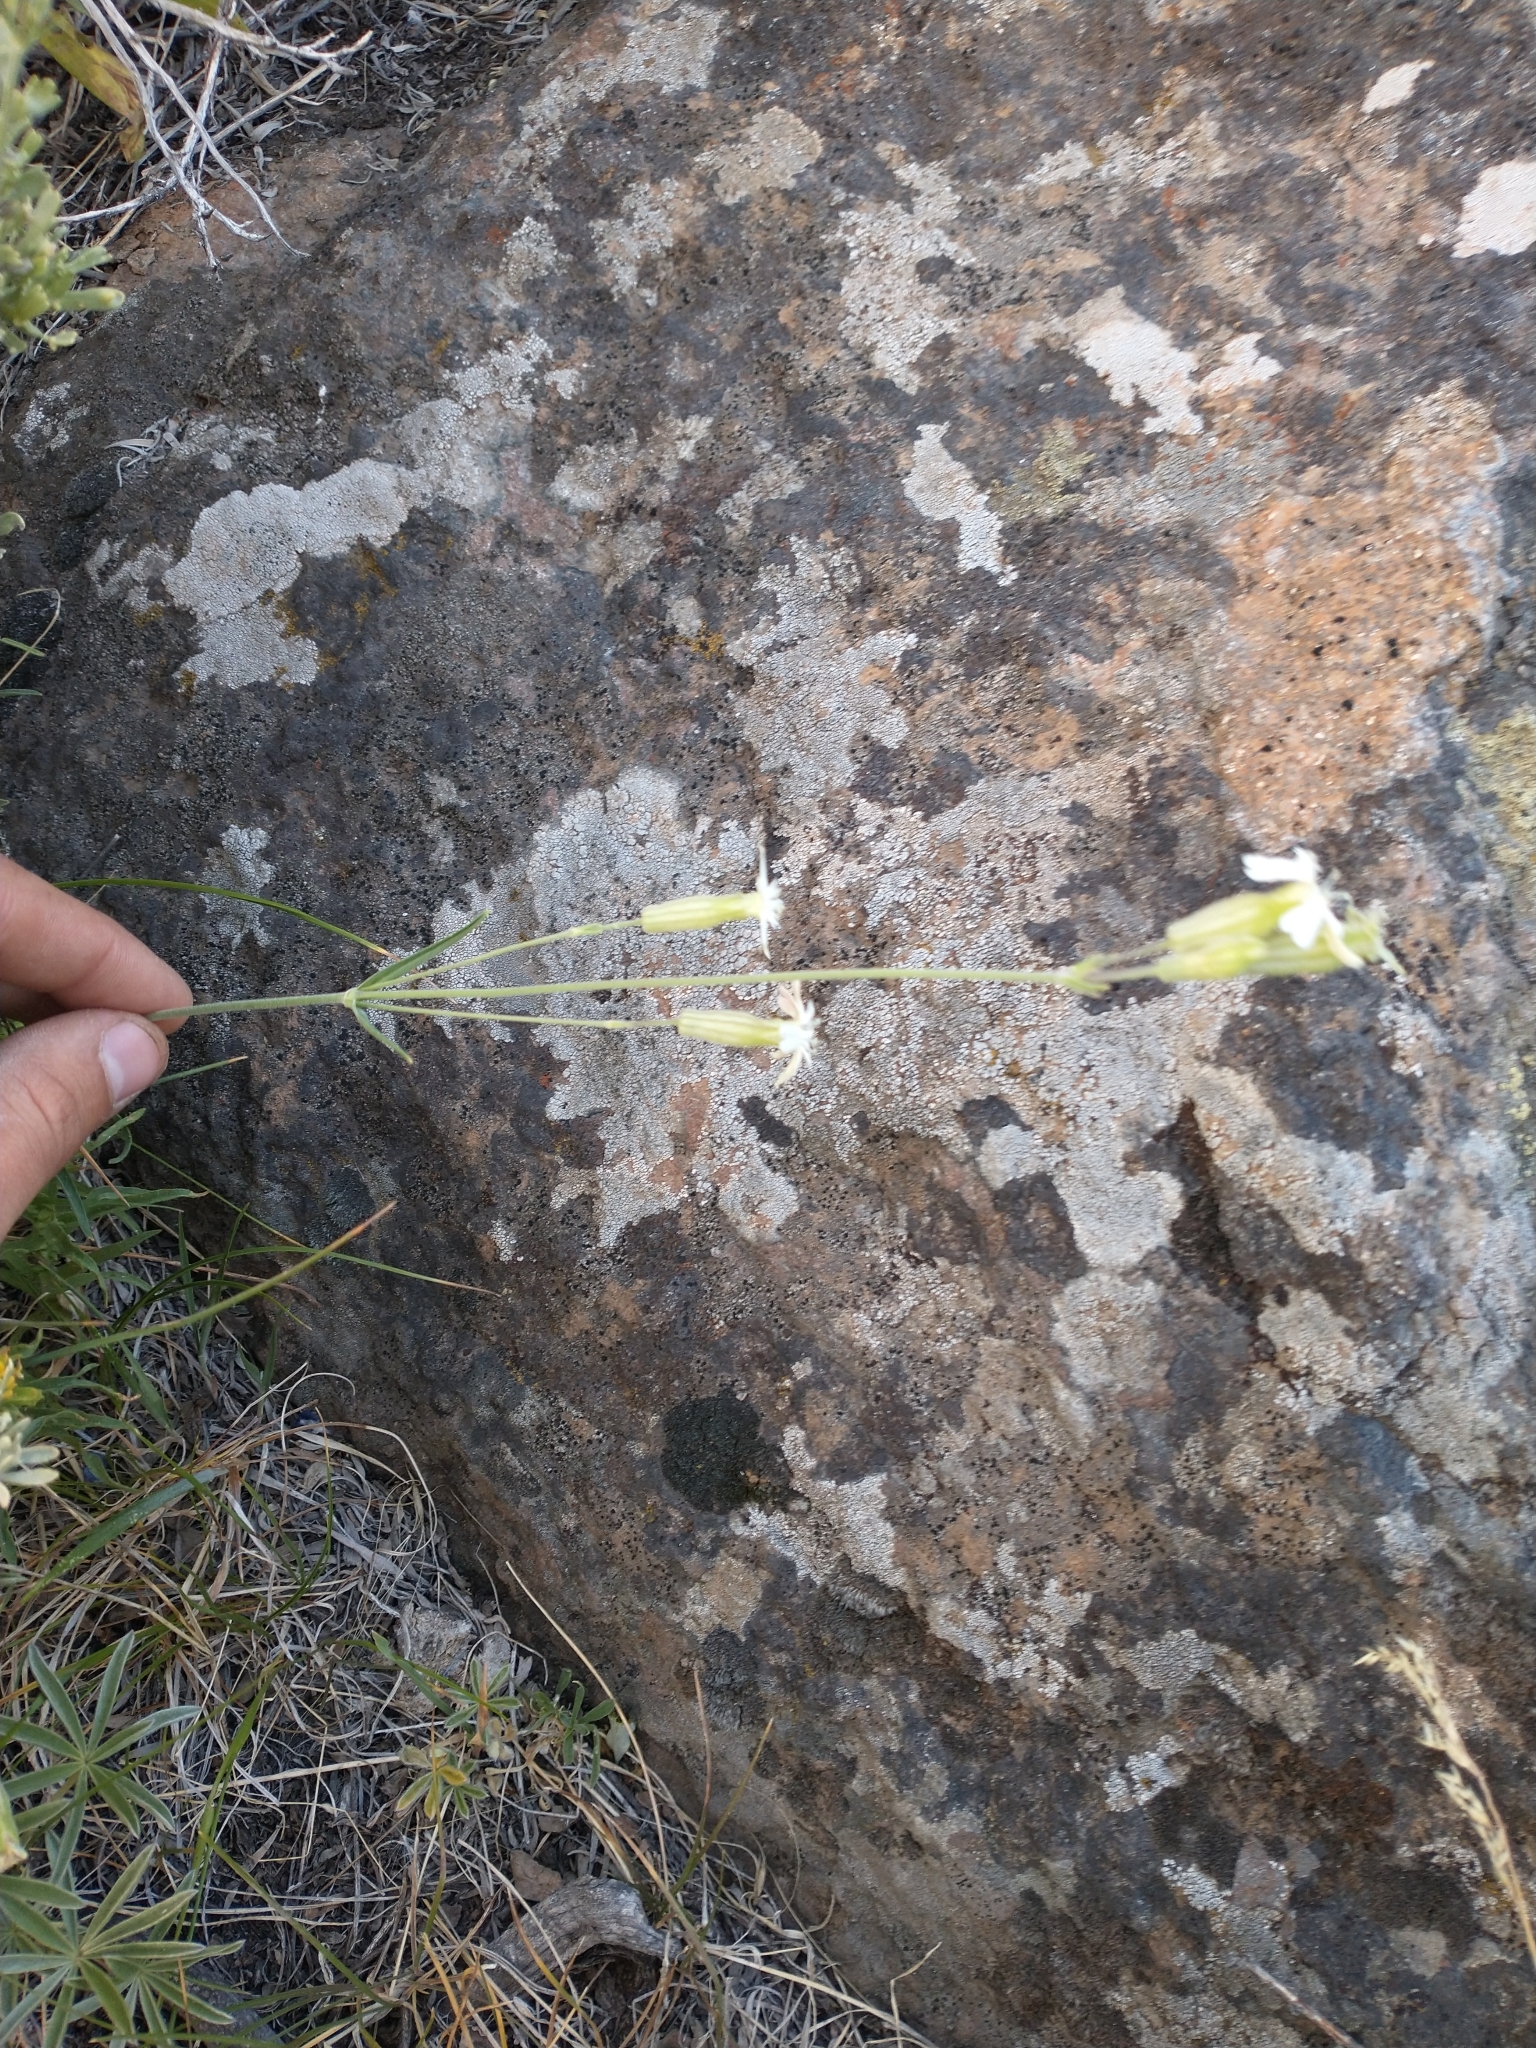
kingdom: Plantae
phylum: Tracheophyta
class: Magnoliopsida
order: Caryophyllales
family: Caryophyllaceae
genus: Silene
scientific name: Silene douglasii
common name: Douglas's catchfly
